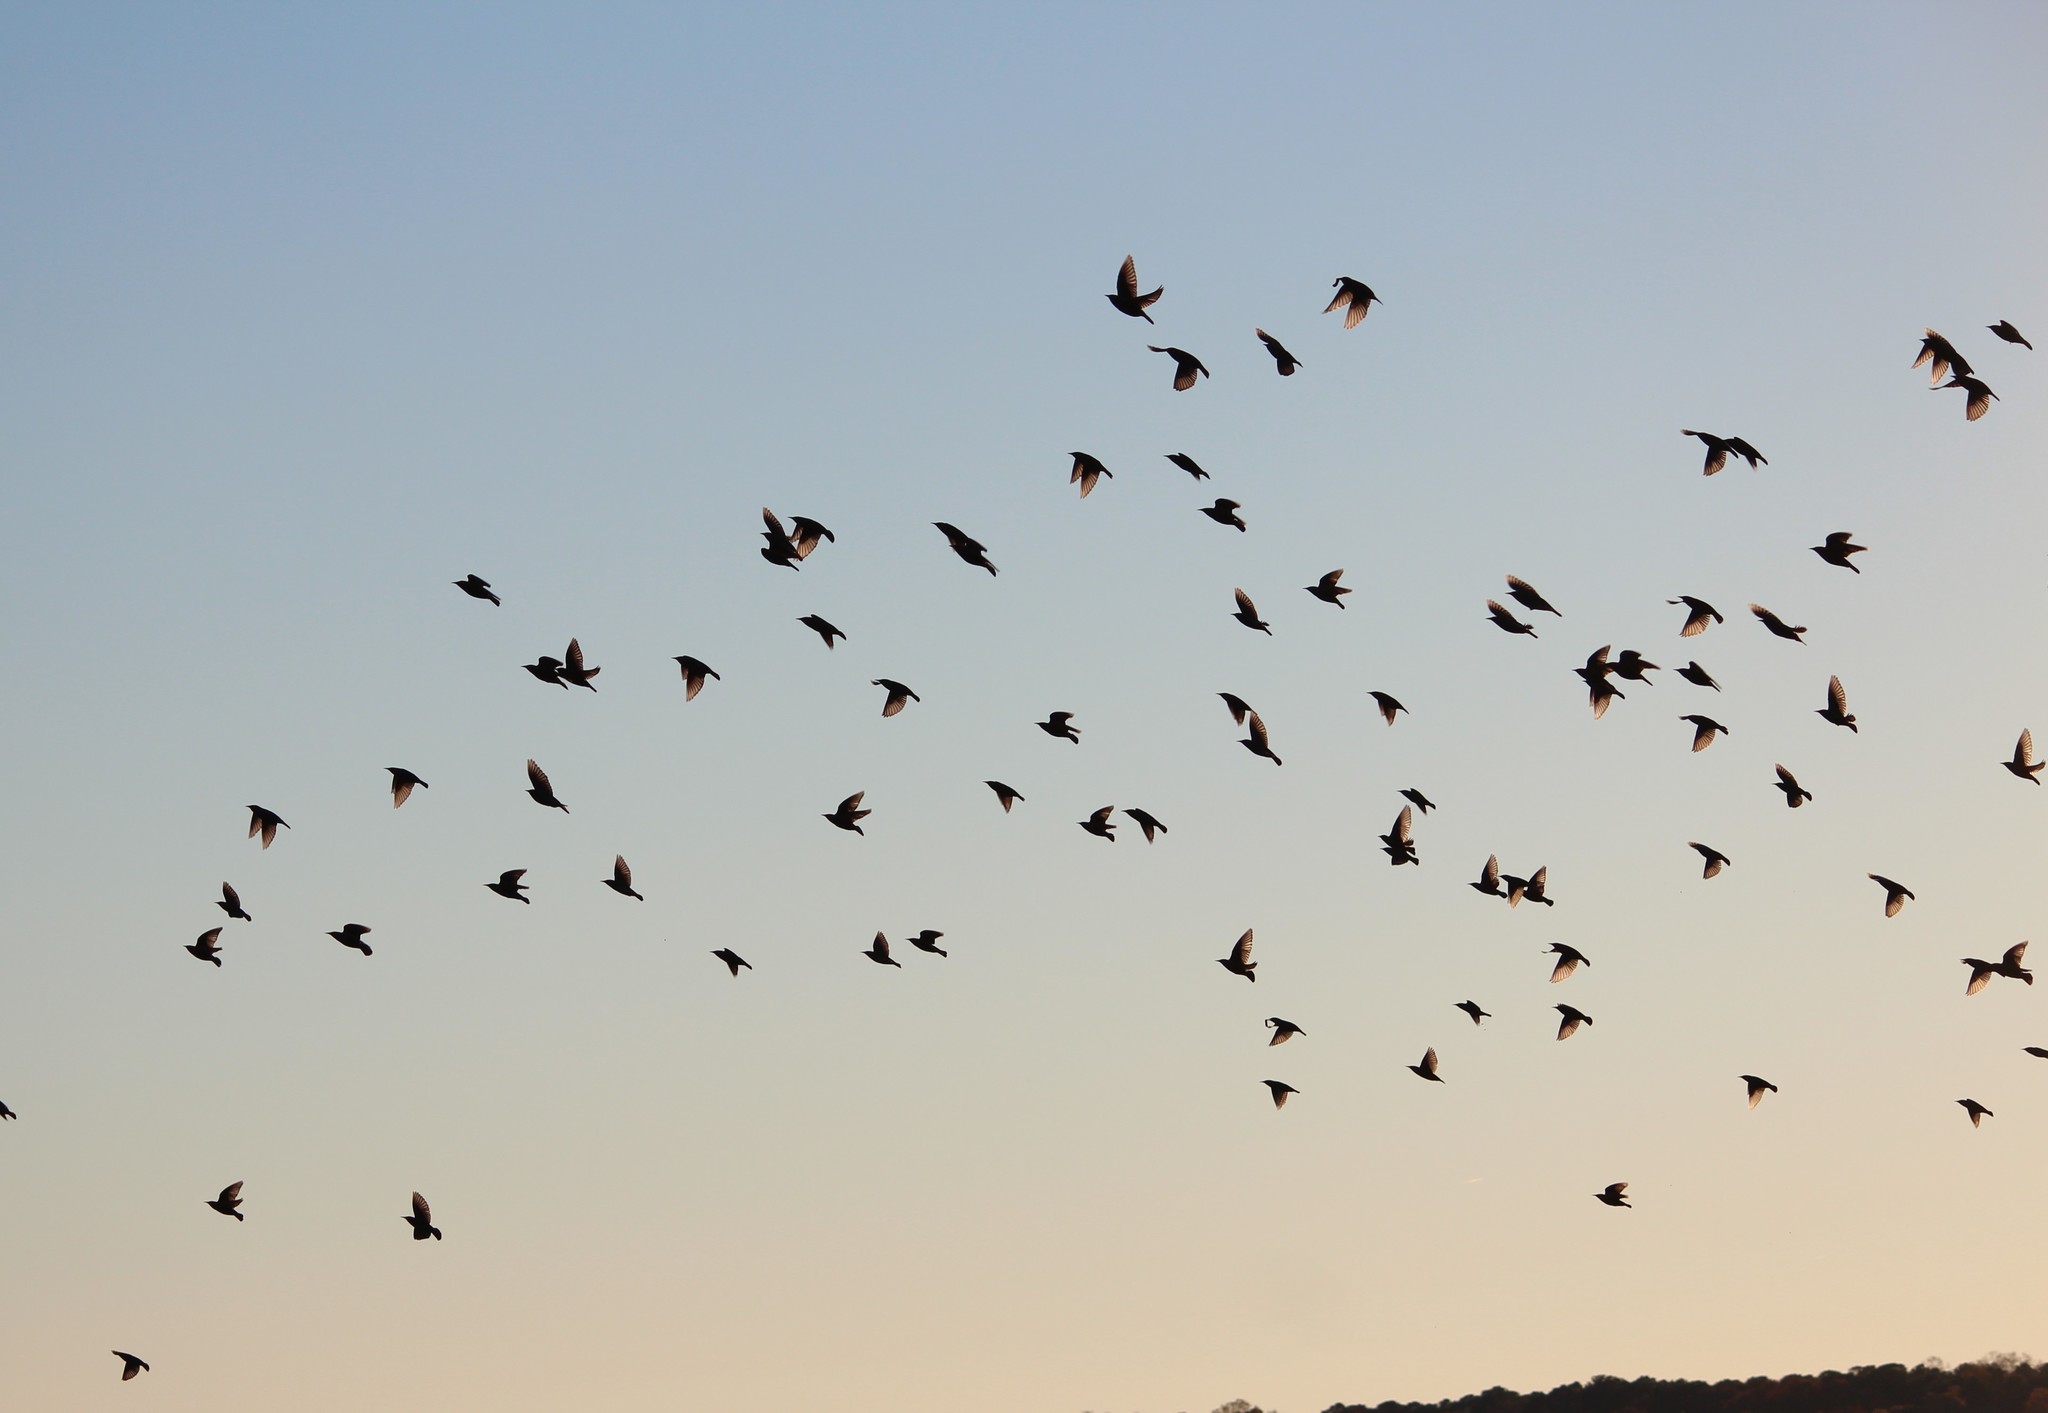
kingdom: Animalia
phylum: Chordata
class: Aves
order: Passeriformes
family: Sturnidae
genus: Sturnus
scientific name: Sturnus vulgaris
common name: Common starling
